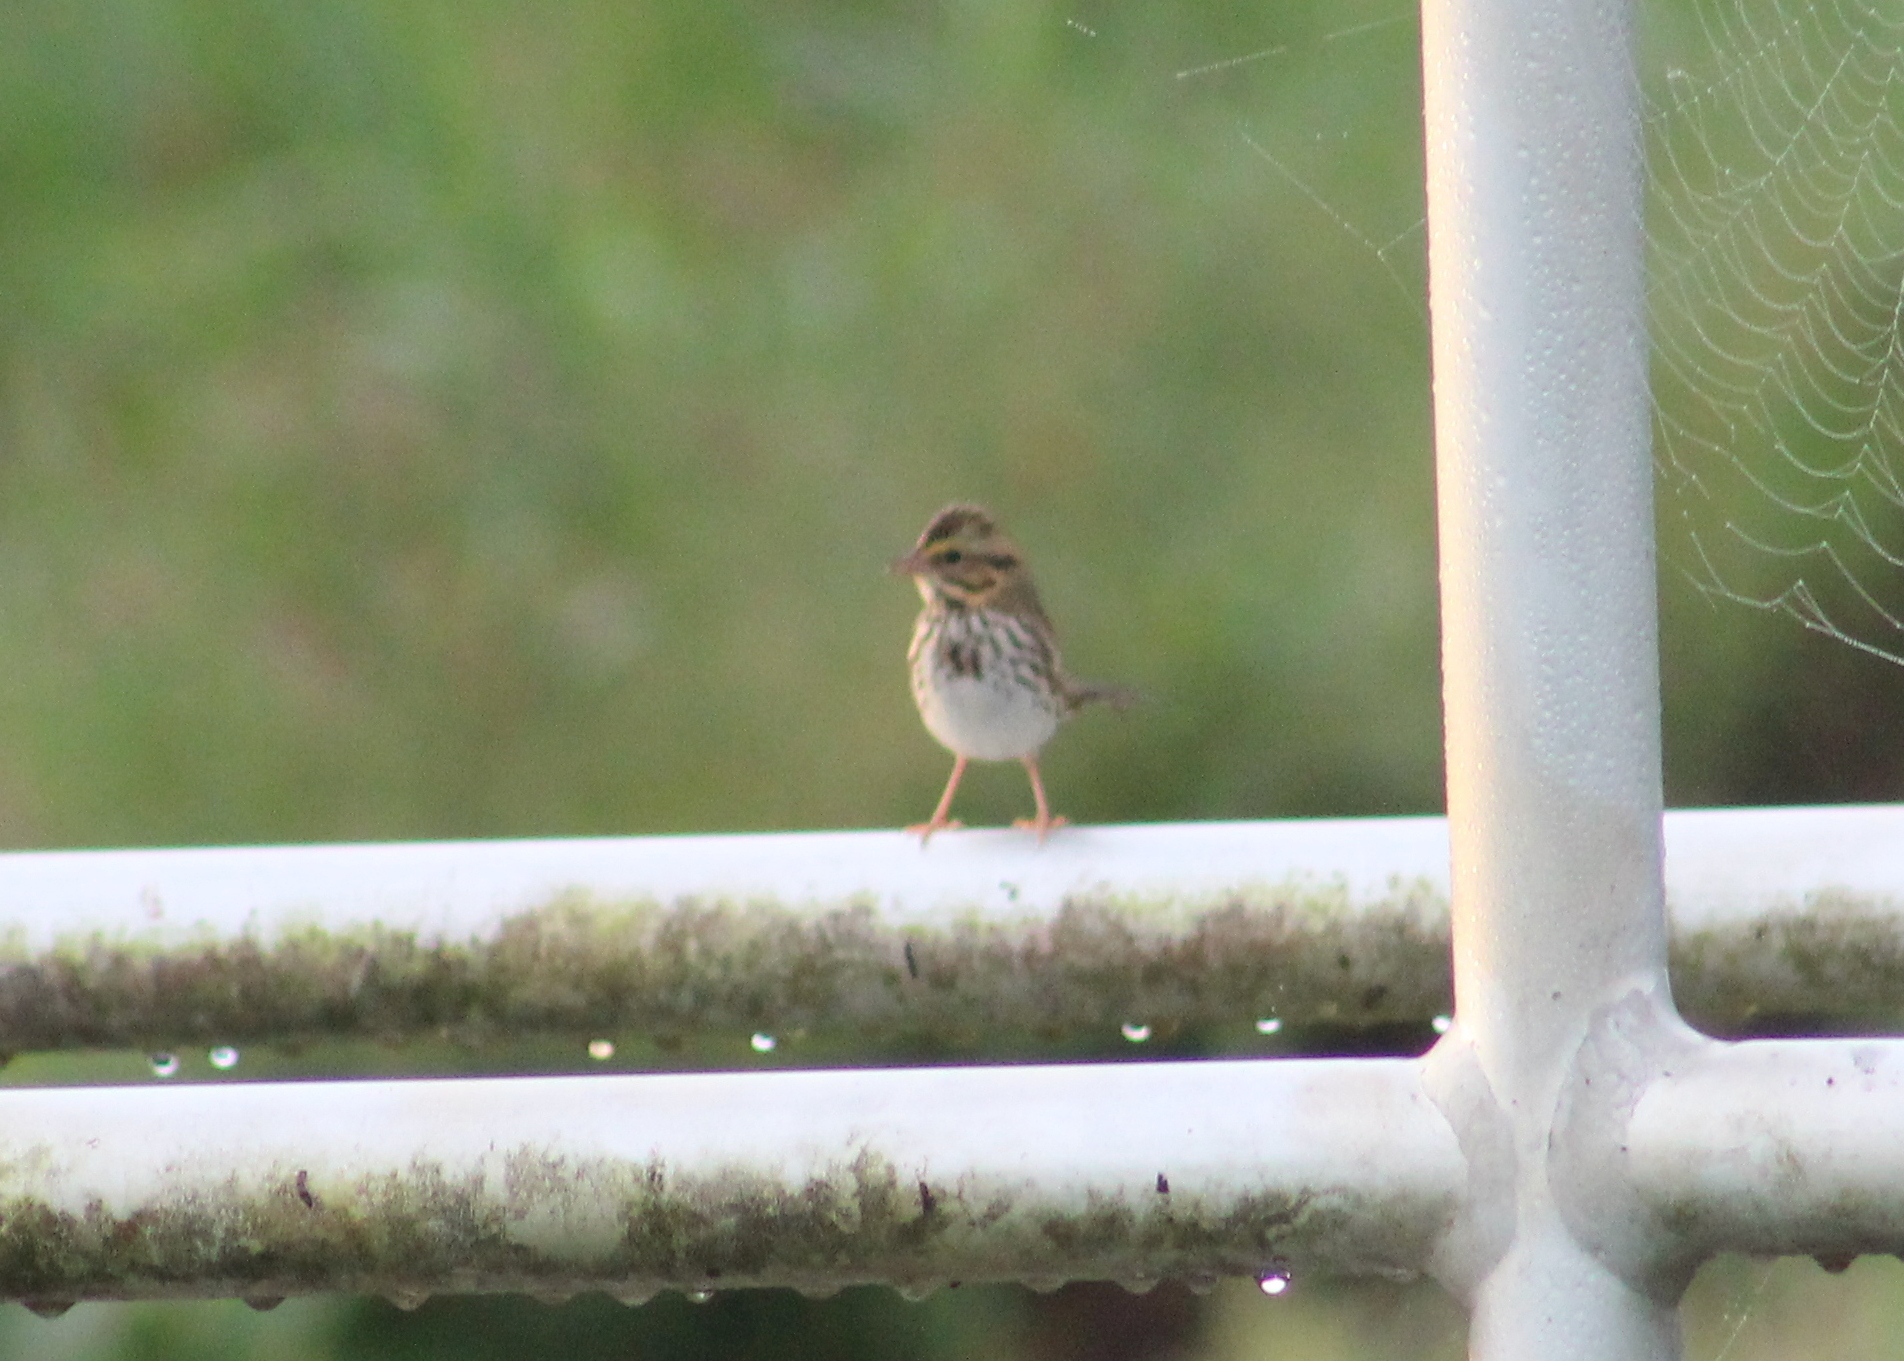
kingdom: Animalia
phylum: Chordata
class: Aves
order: Passeriformes
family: Passerellidae
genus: Passerculus
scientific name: Passerculus sandwichensis
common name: Savannah sparrow
